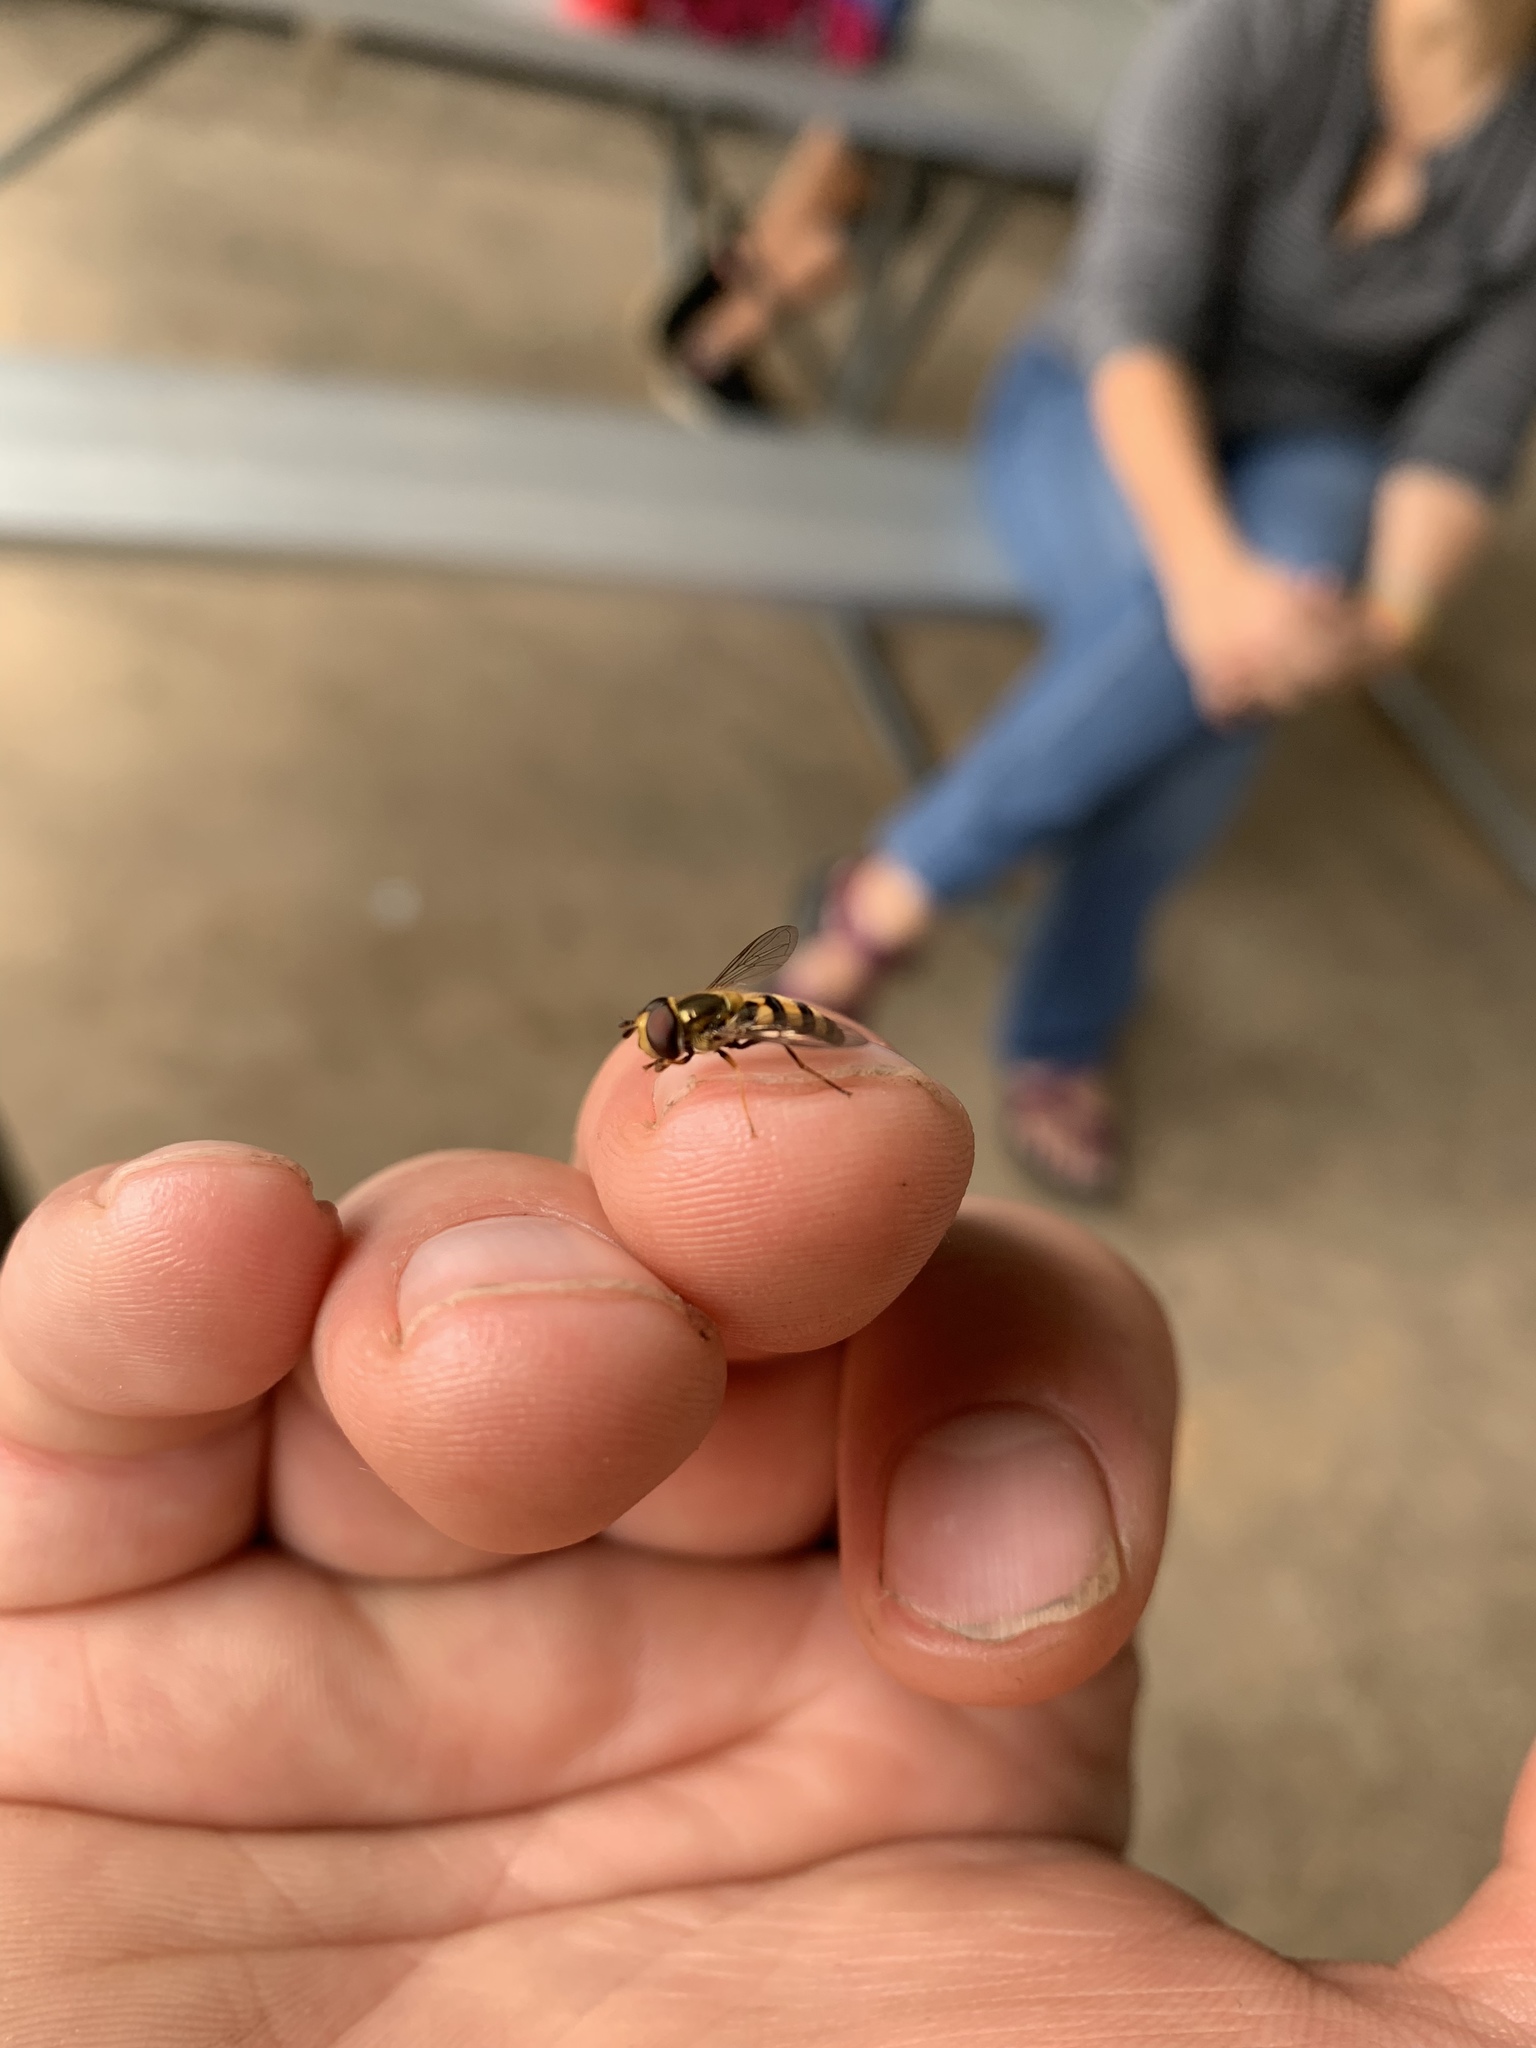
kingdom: Animalia
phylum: Arthropoda
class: Insecta
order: Diptera
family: Syrphidae
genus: Eupeodes
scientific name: Eupeodes
